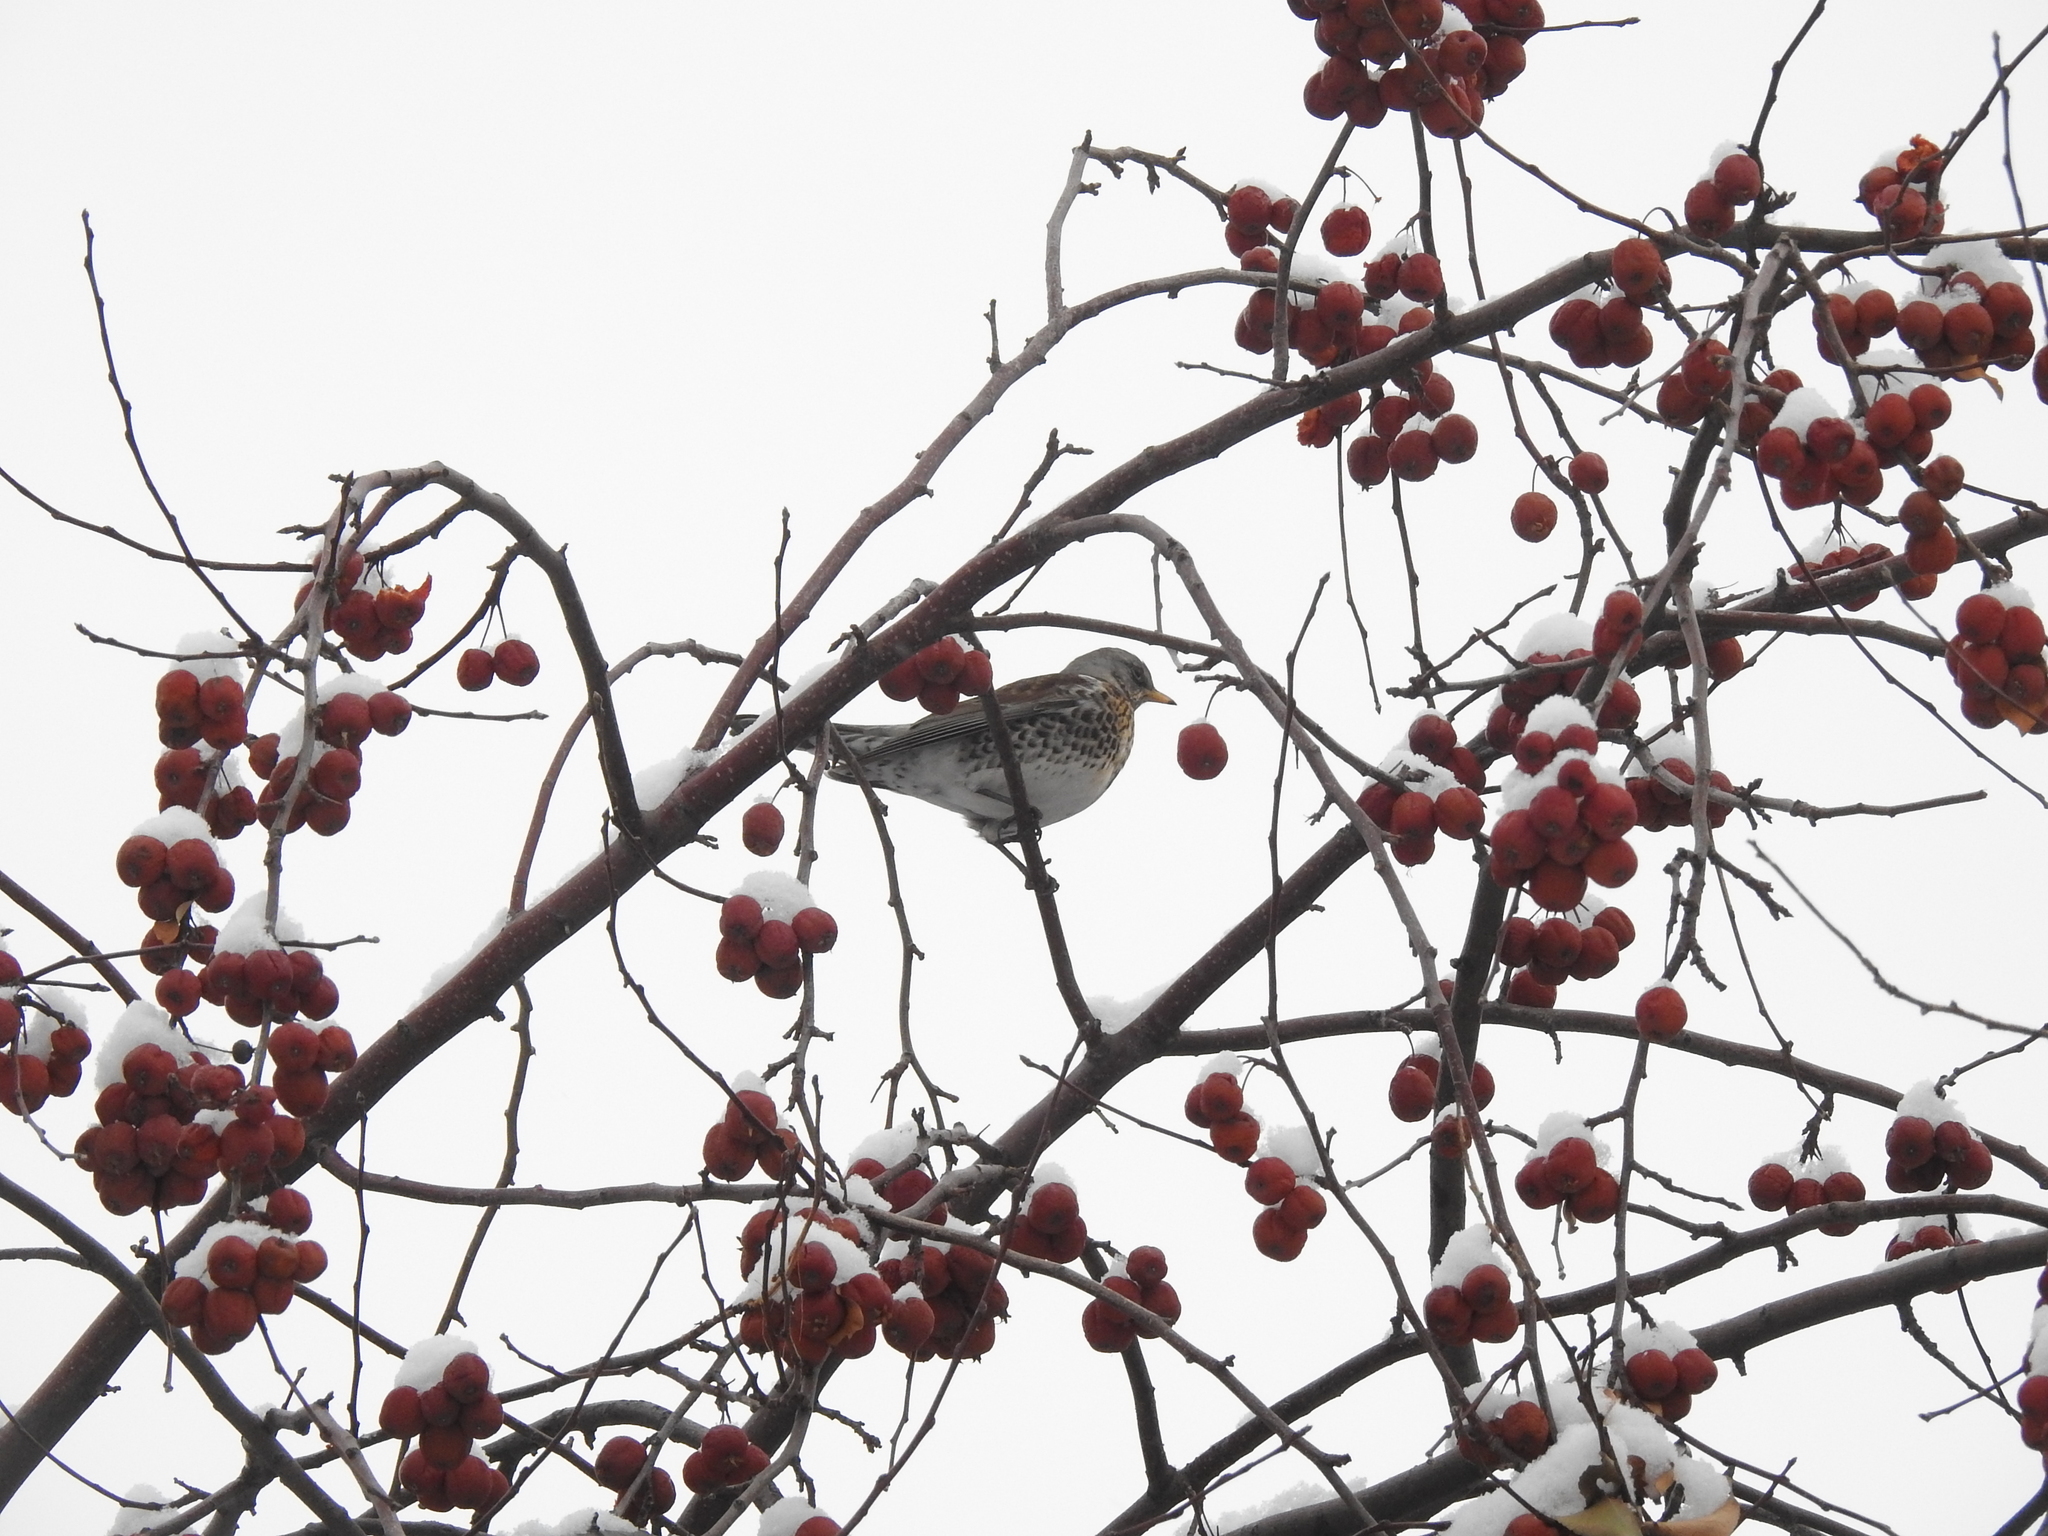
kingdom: Animalia
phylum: Chordata
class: Aves
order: Passeriformes
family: Turdidae
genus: Turdus
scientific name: Turdus pilaris
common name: Fieldfare
